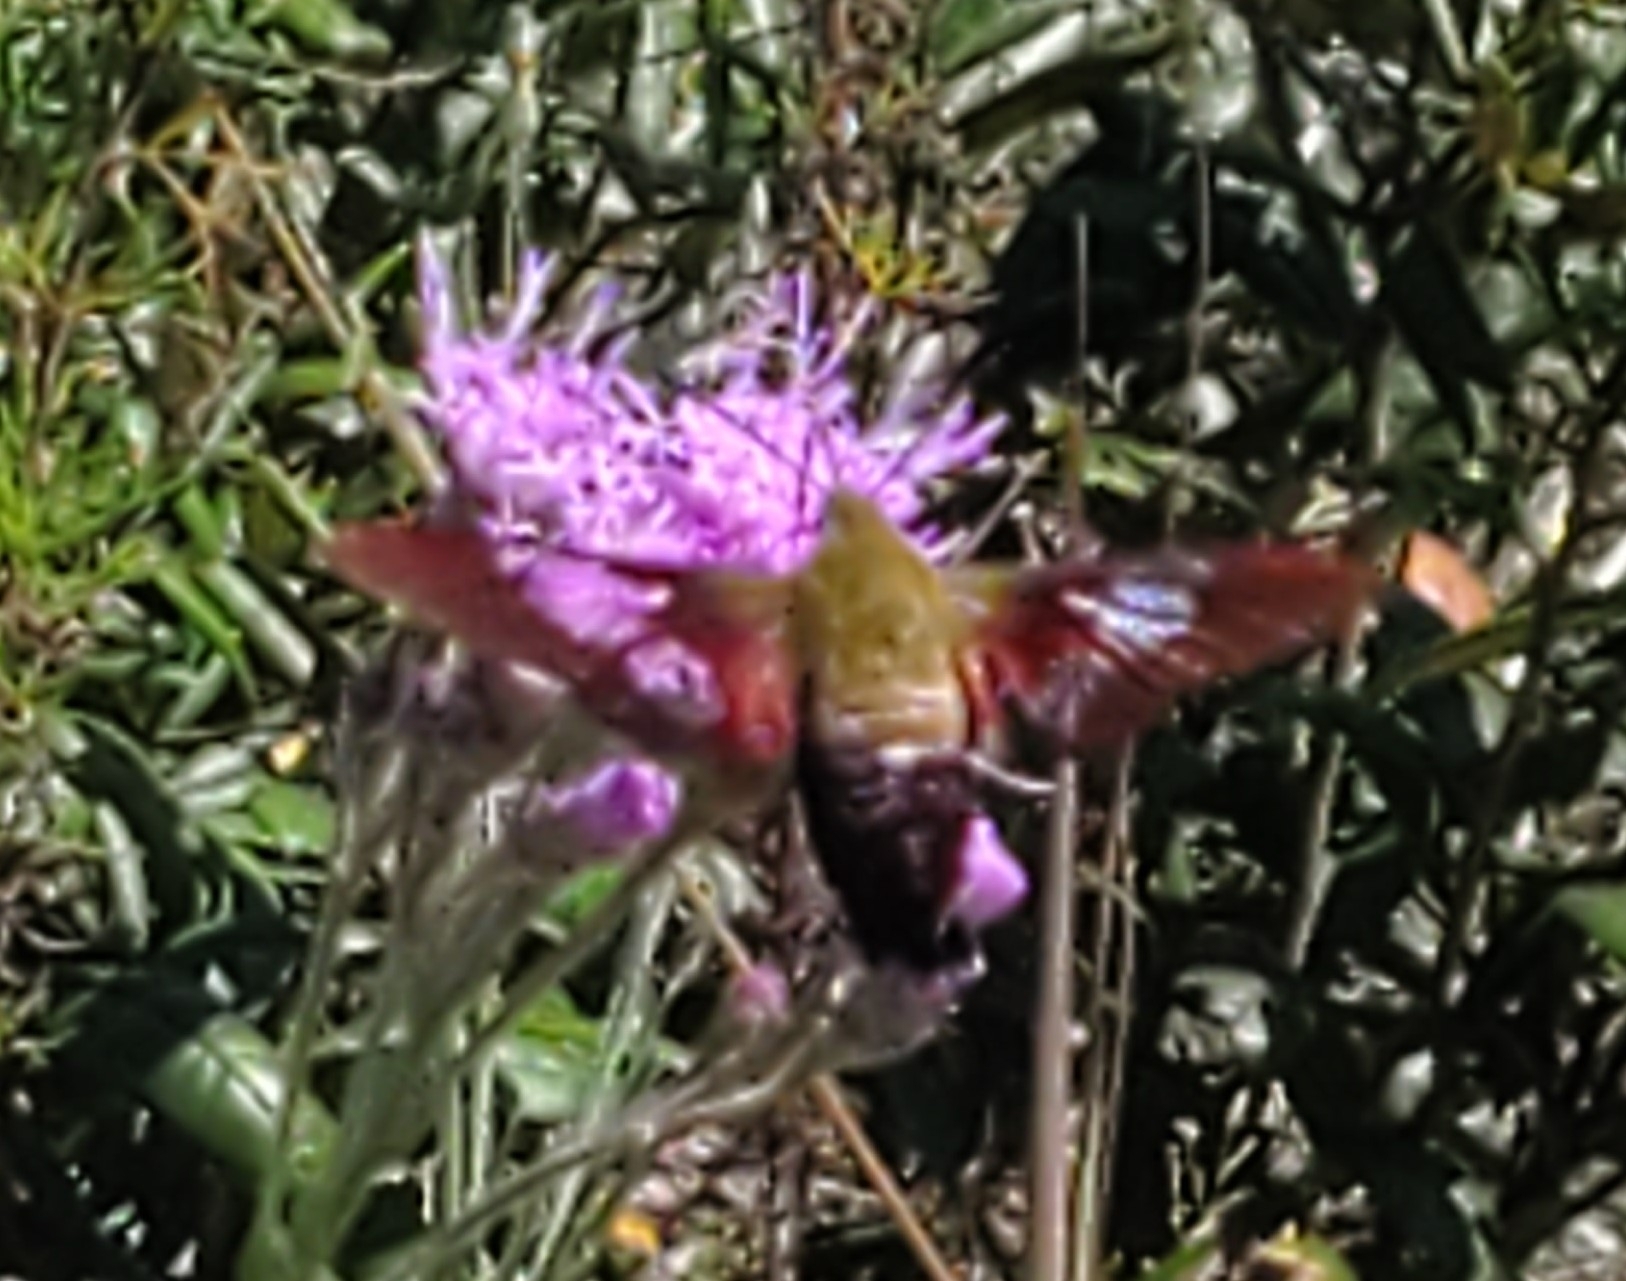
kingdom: Animalia
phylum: Arthropoda
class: Insecta
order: Lepidoptera
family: Sphingidae
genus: Hemaris
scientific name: Hemaris thysbe
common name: Common clear-wing
